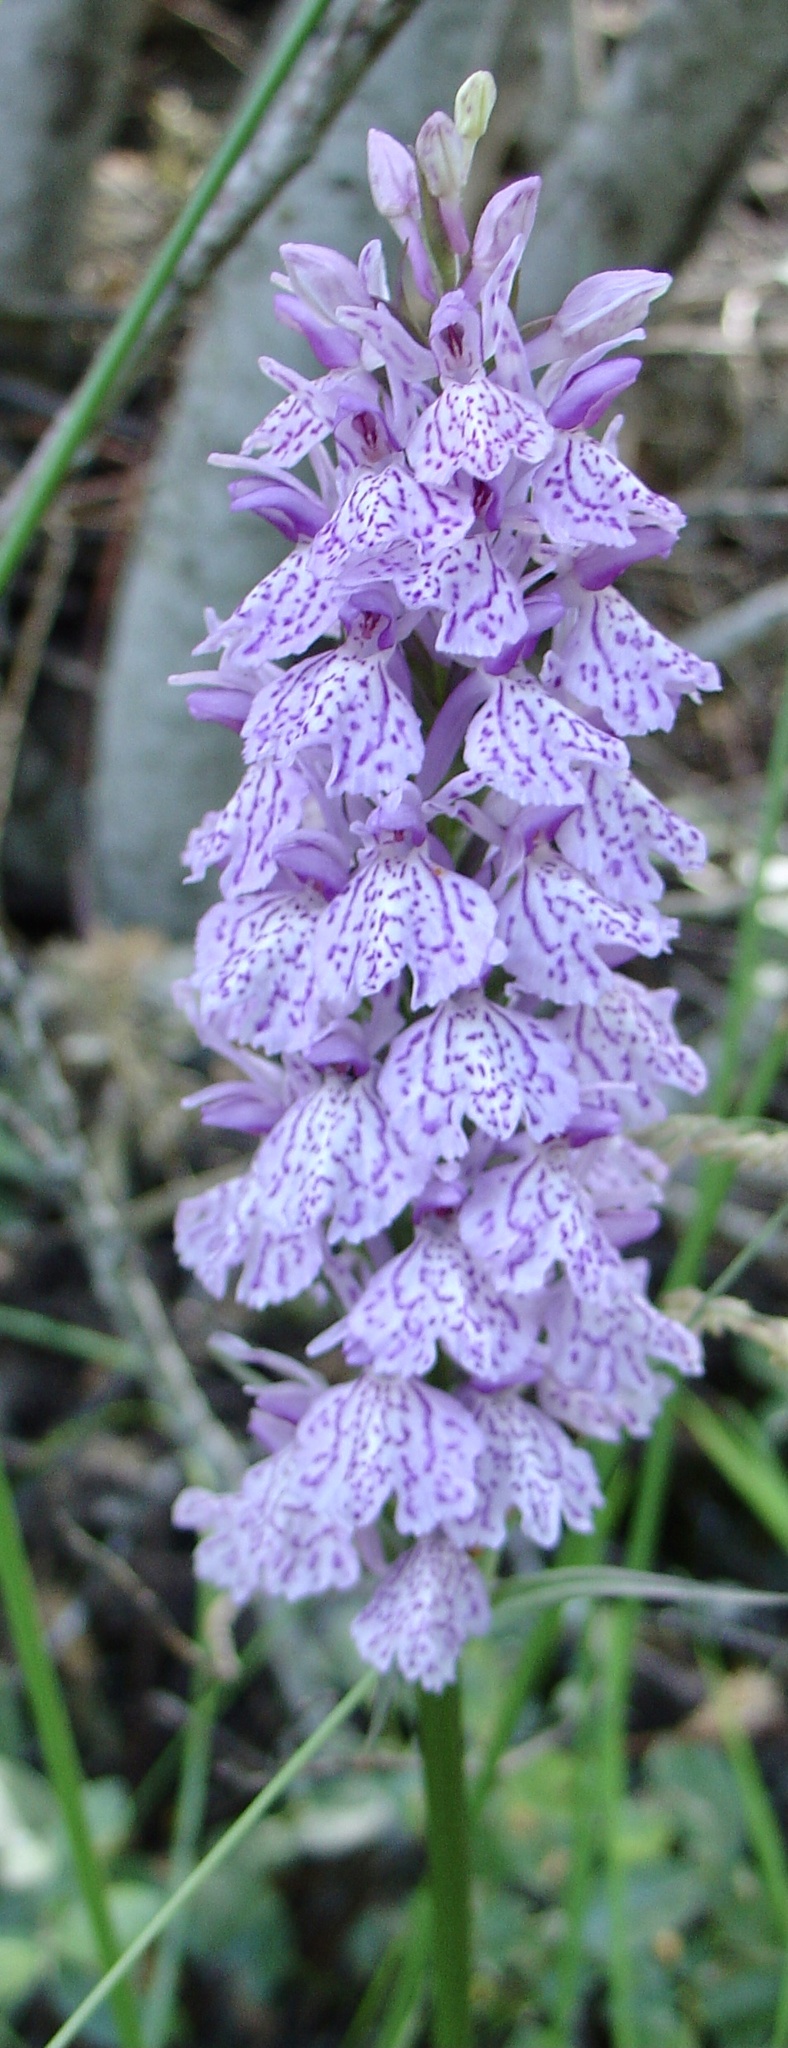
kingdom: Plantae
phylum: Tracheophyta
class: Liliopsida
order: Asparagales
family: Orchidaceae
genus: Dactylorhiza
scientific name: Dactylorhiza maculata
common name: Heath spotted-orchid
